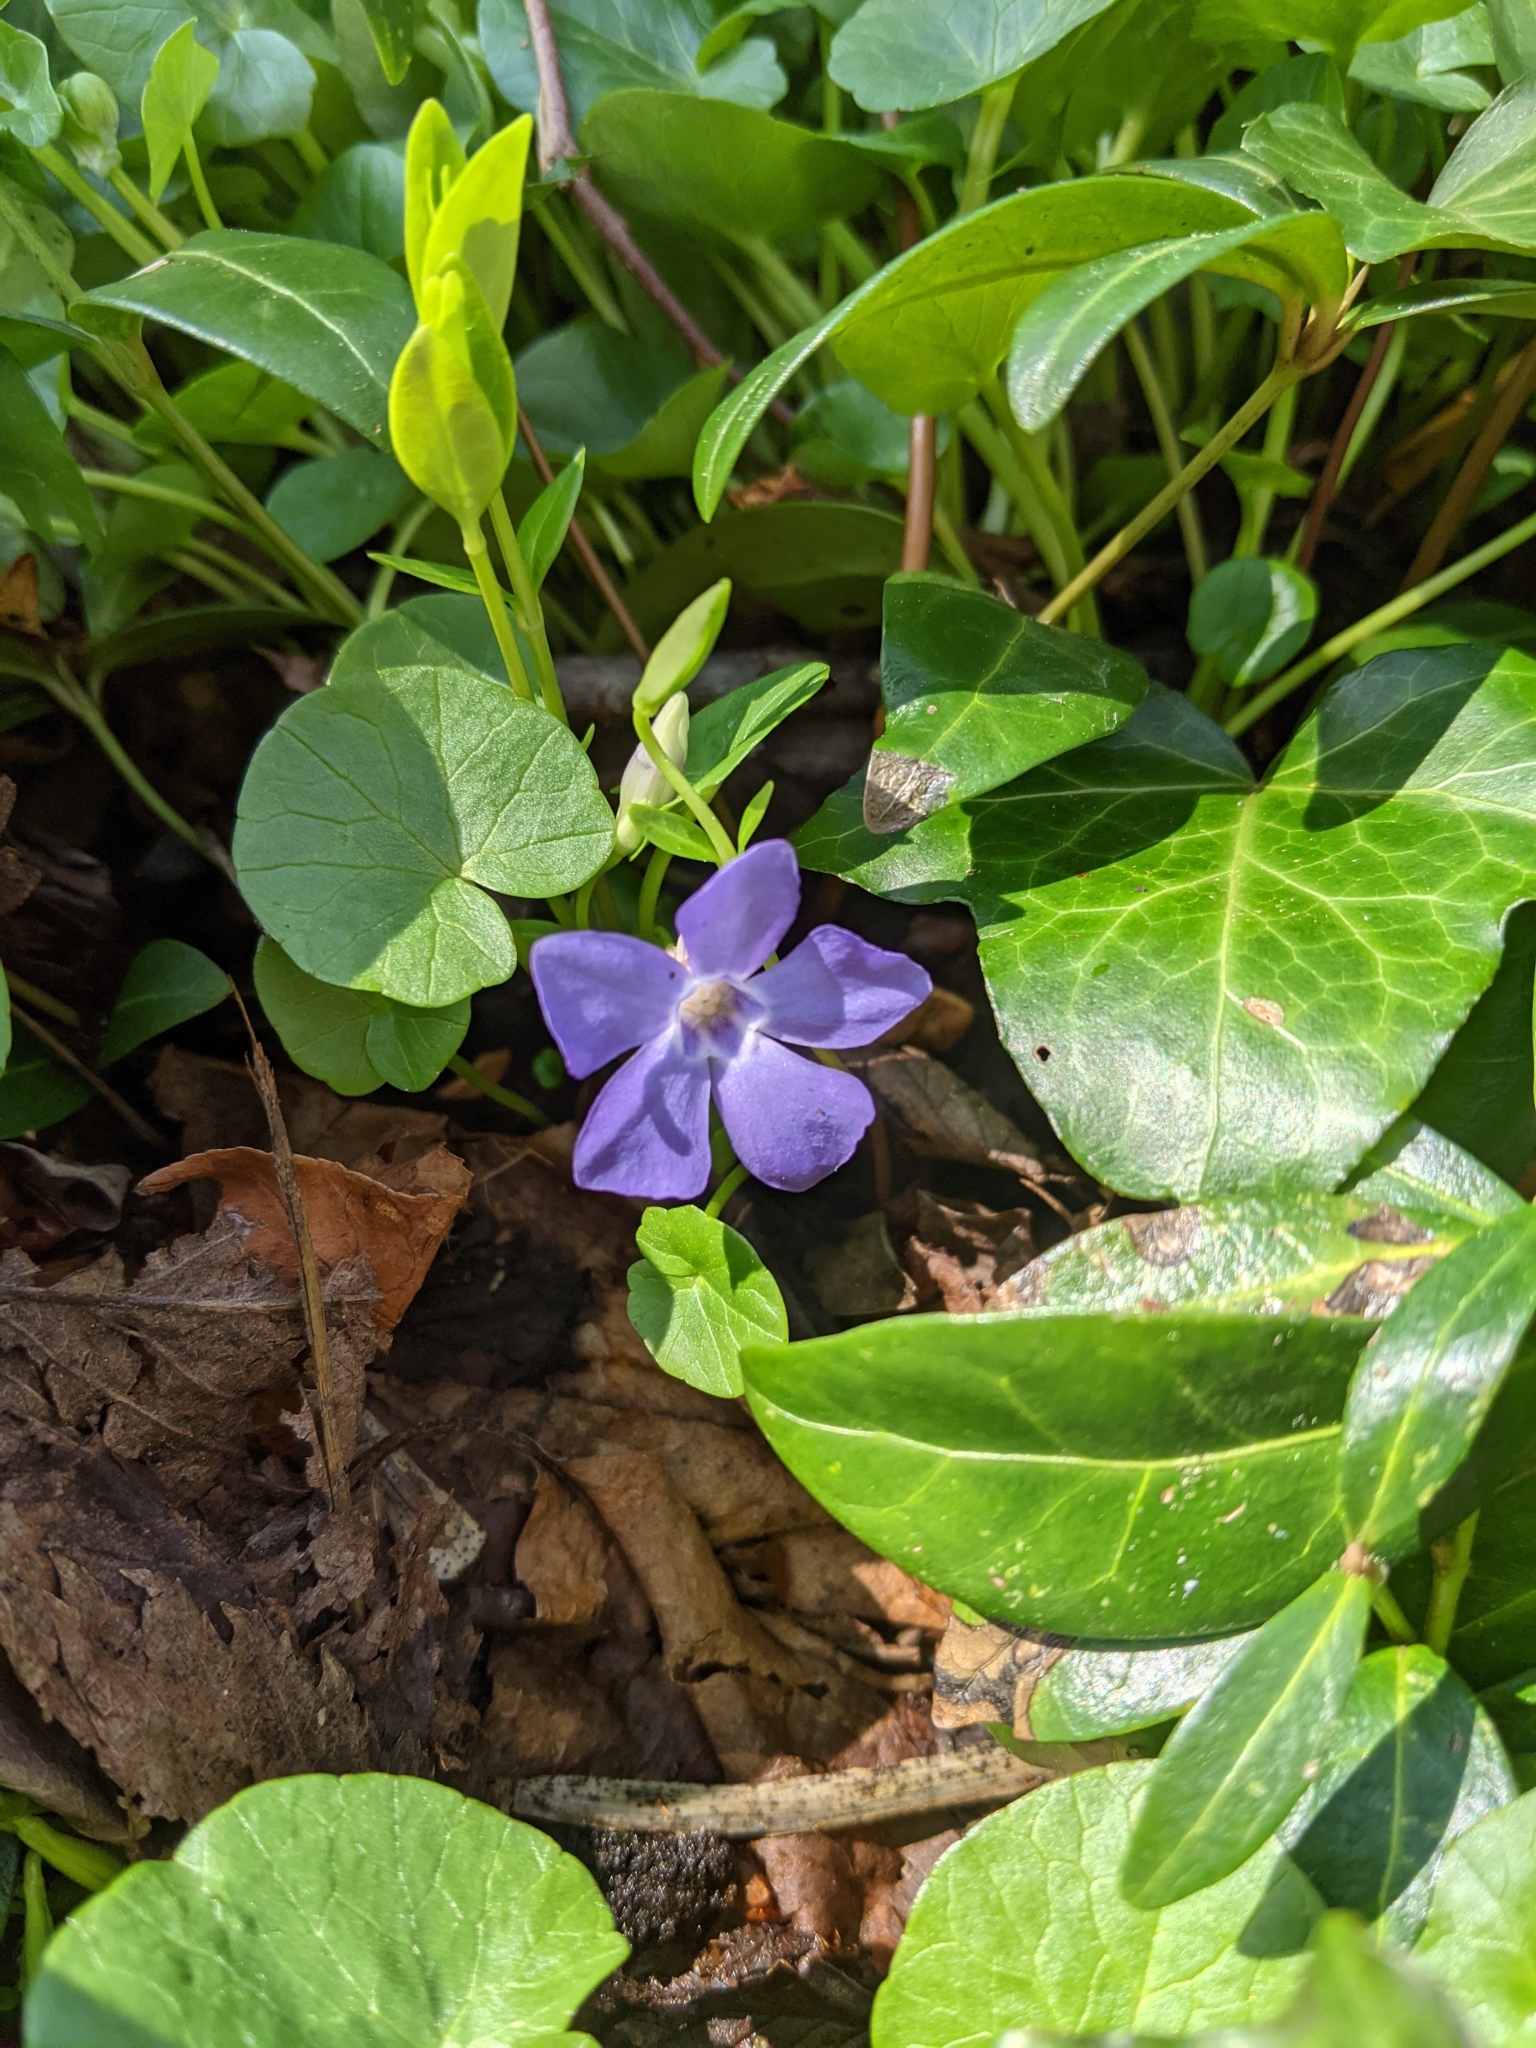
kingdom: Plantae
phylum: Tracheophyta
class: Magnoliopsida
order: Gentianales
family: Apocynaceae
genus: Vinca
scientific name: Vinca minor
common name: Lesser periwinkle
